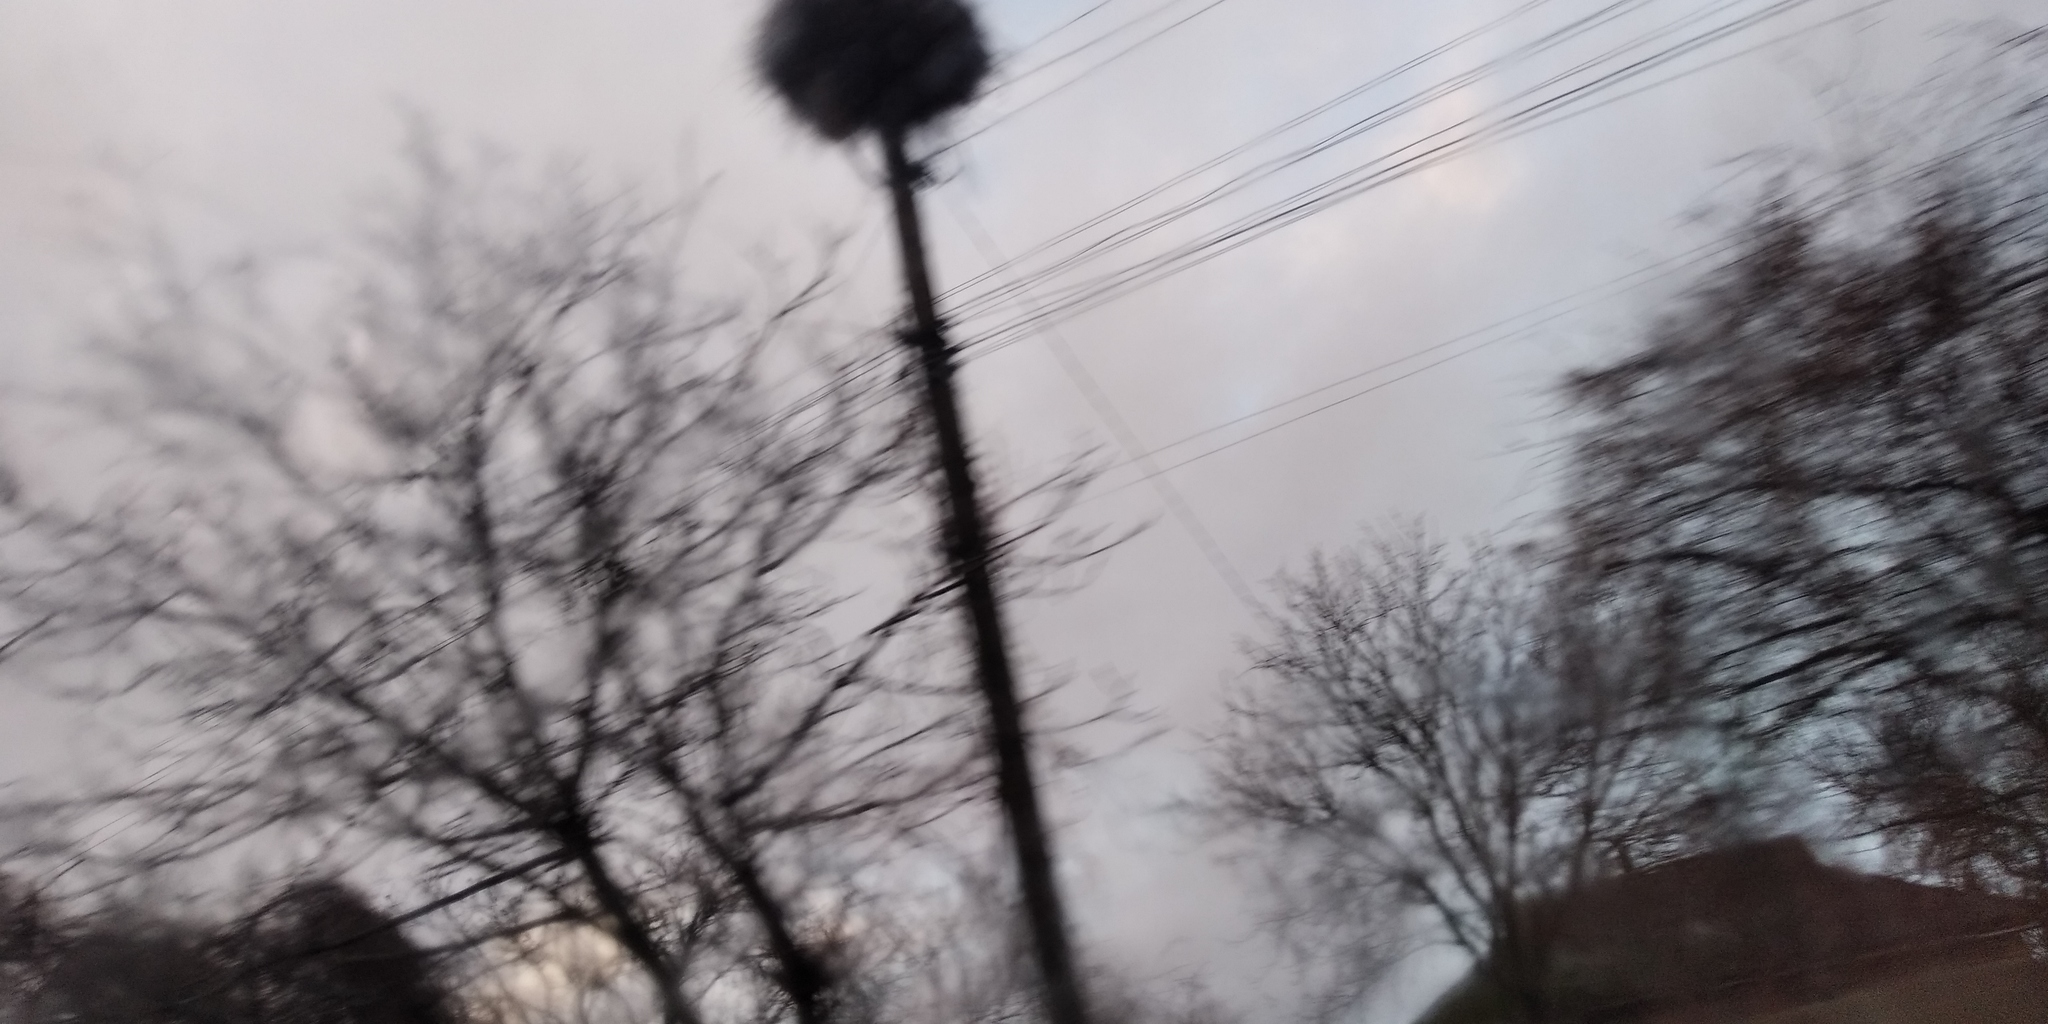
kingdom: Animalia
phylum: Chordata
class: Aves
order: Ciconiiformes
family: Ciconiidae
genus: Ciconia
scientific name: Ciconia ciconia
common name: White stork
